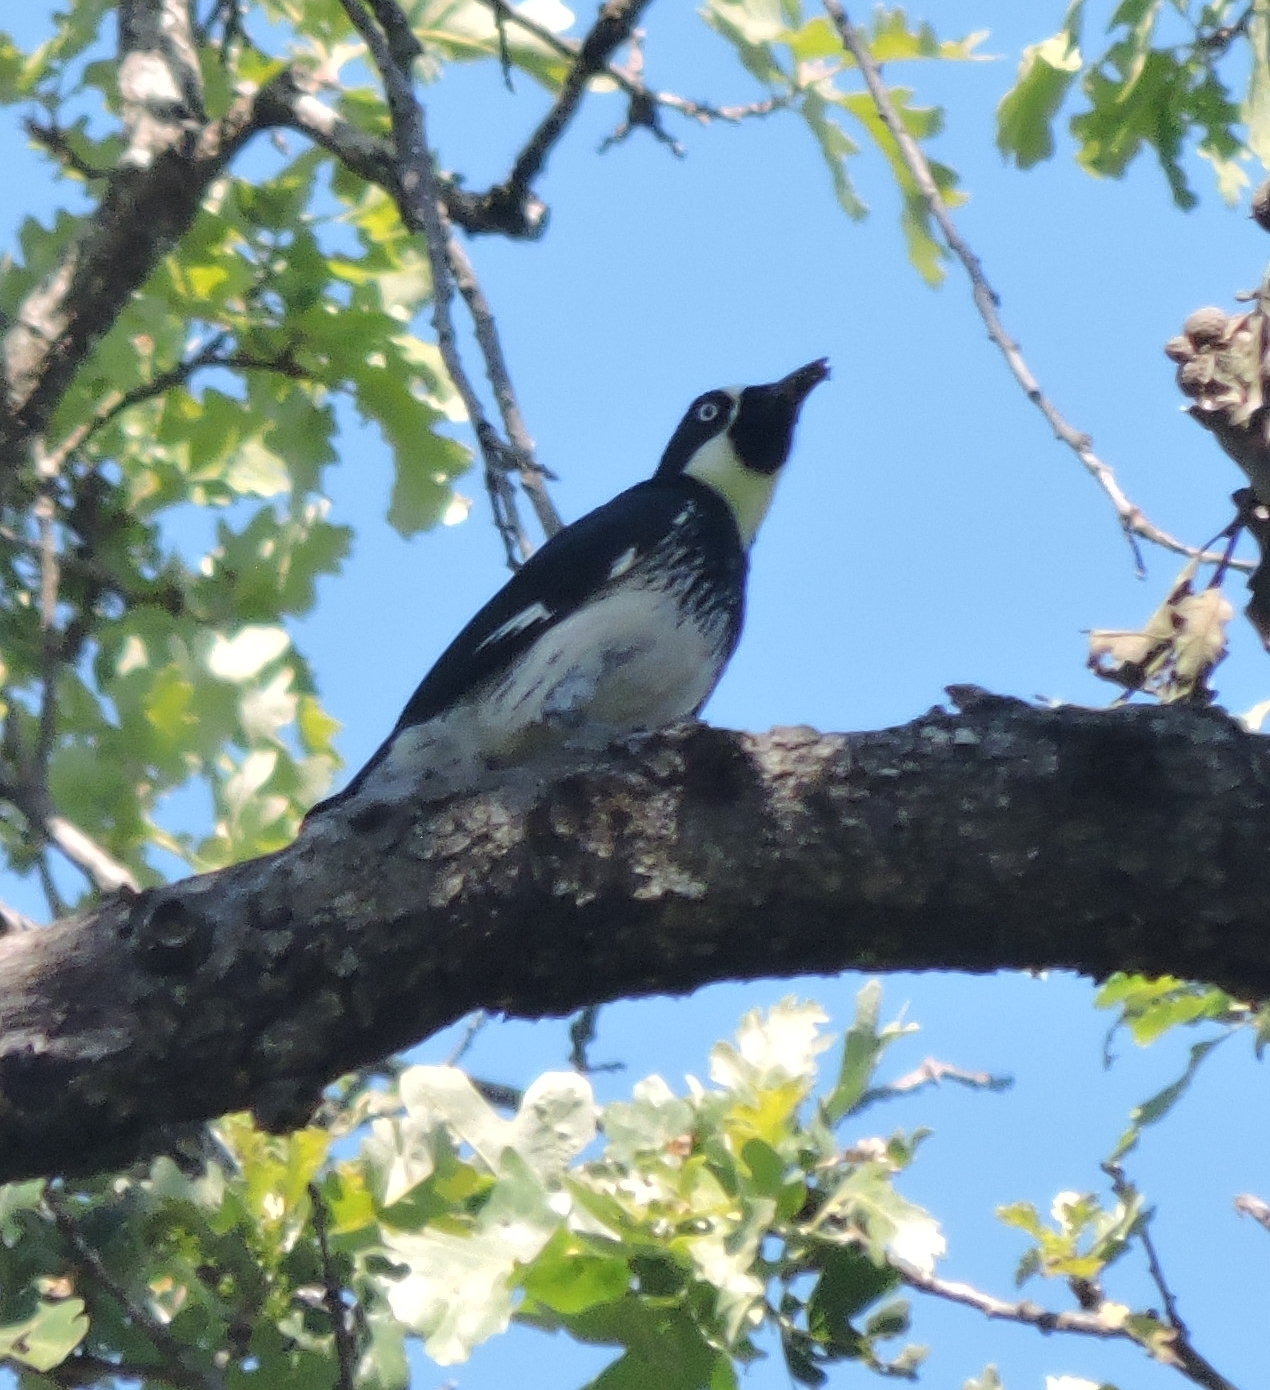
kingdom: Animalia
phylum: Chordata
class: Aves
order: Piciformes
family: Picidae
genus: Melanerpes
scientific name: Melanerpes formicivorus
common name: Acorn woodpecker
